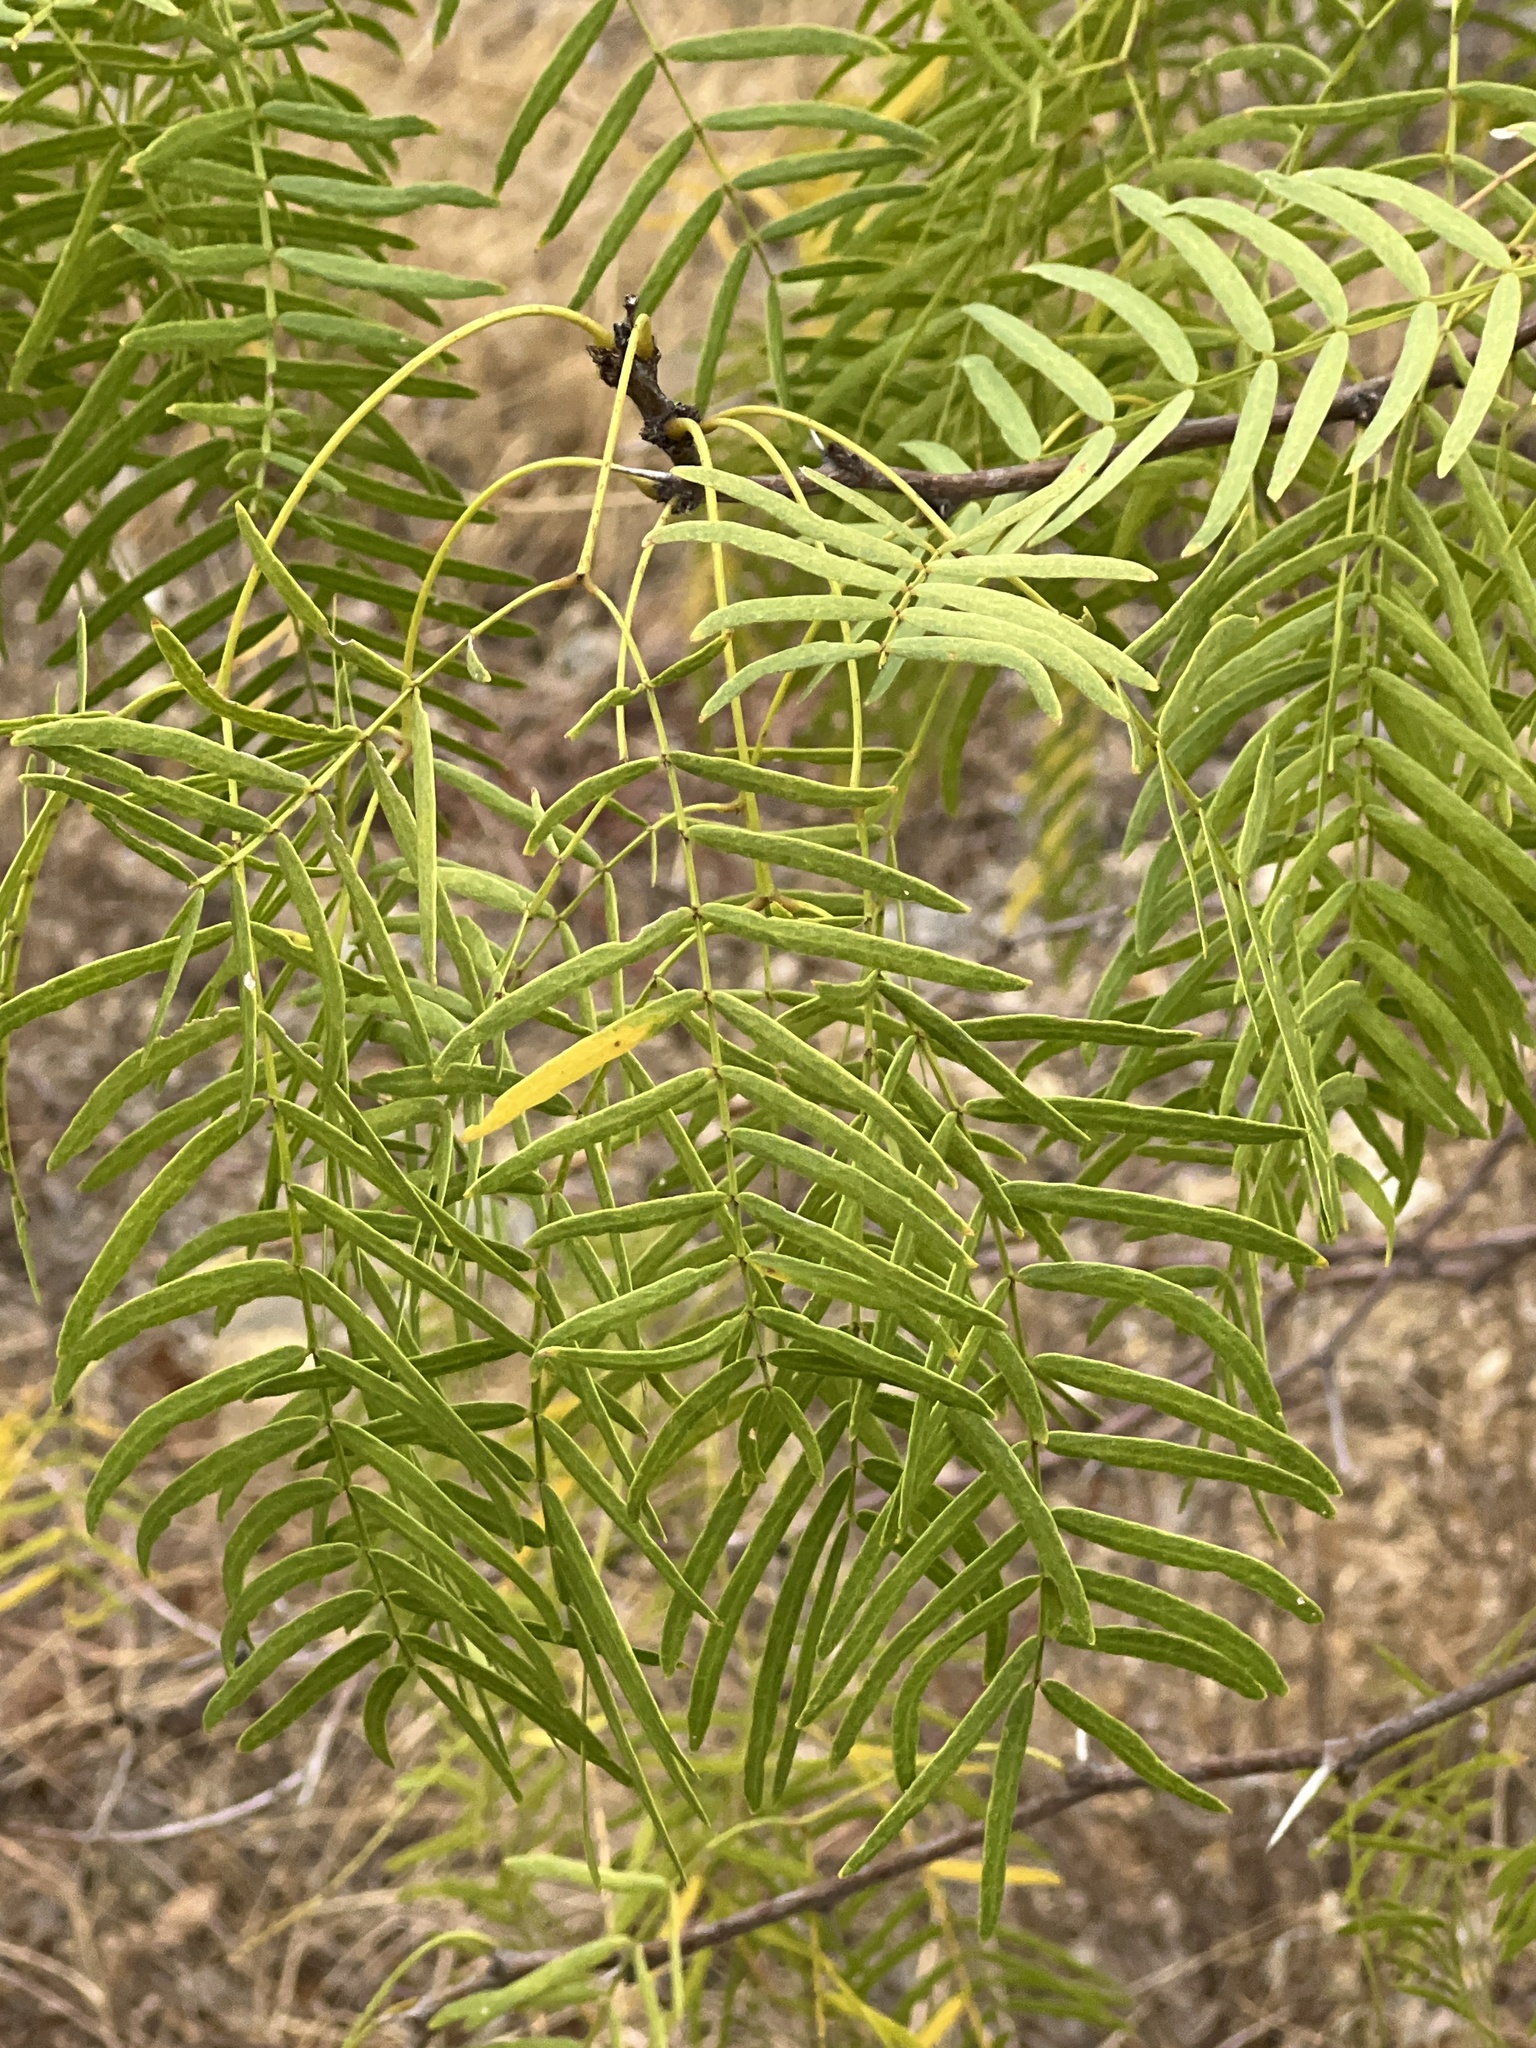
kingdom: Plantae
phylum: Tracheophyta
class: Magnoliopsida
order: Fabales
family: Fabaceae
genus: Prosopis
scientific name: Prosopis glandulosa
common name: Honey mesquite
